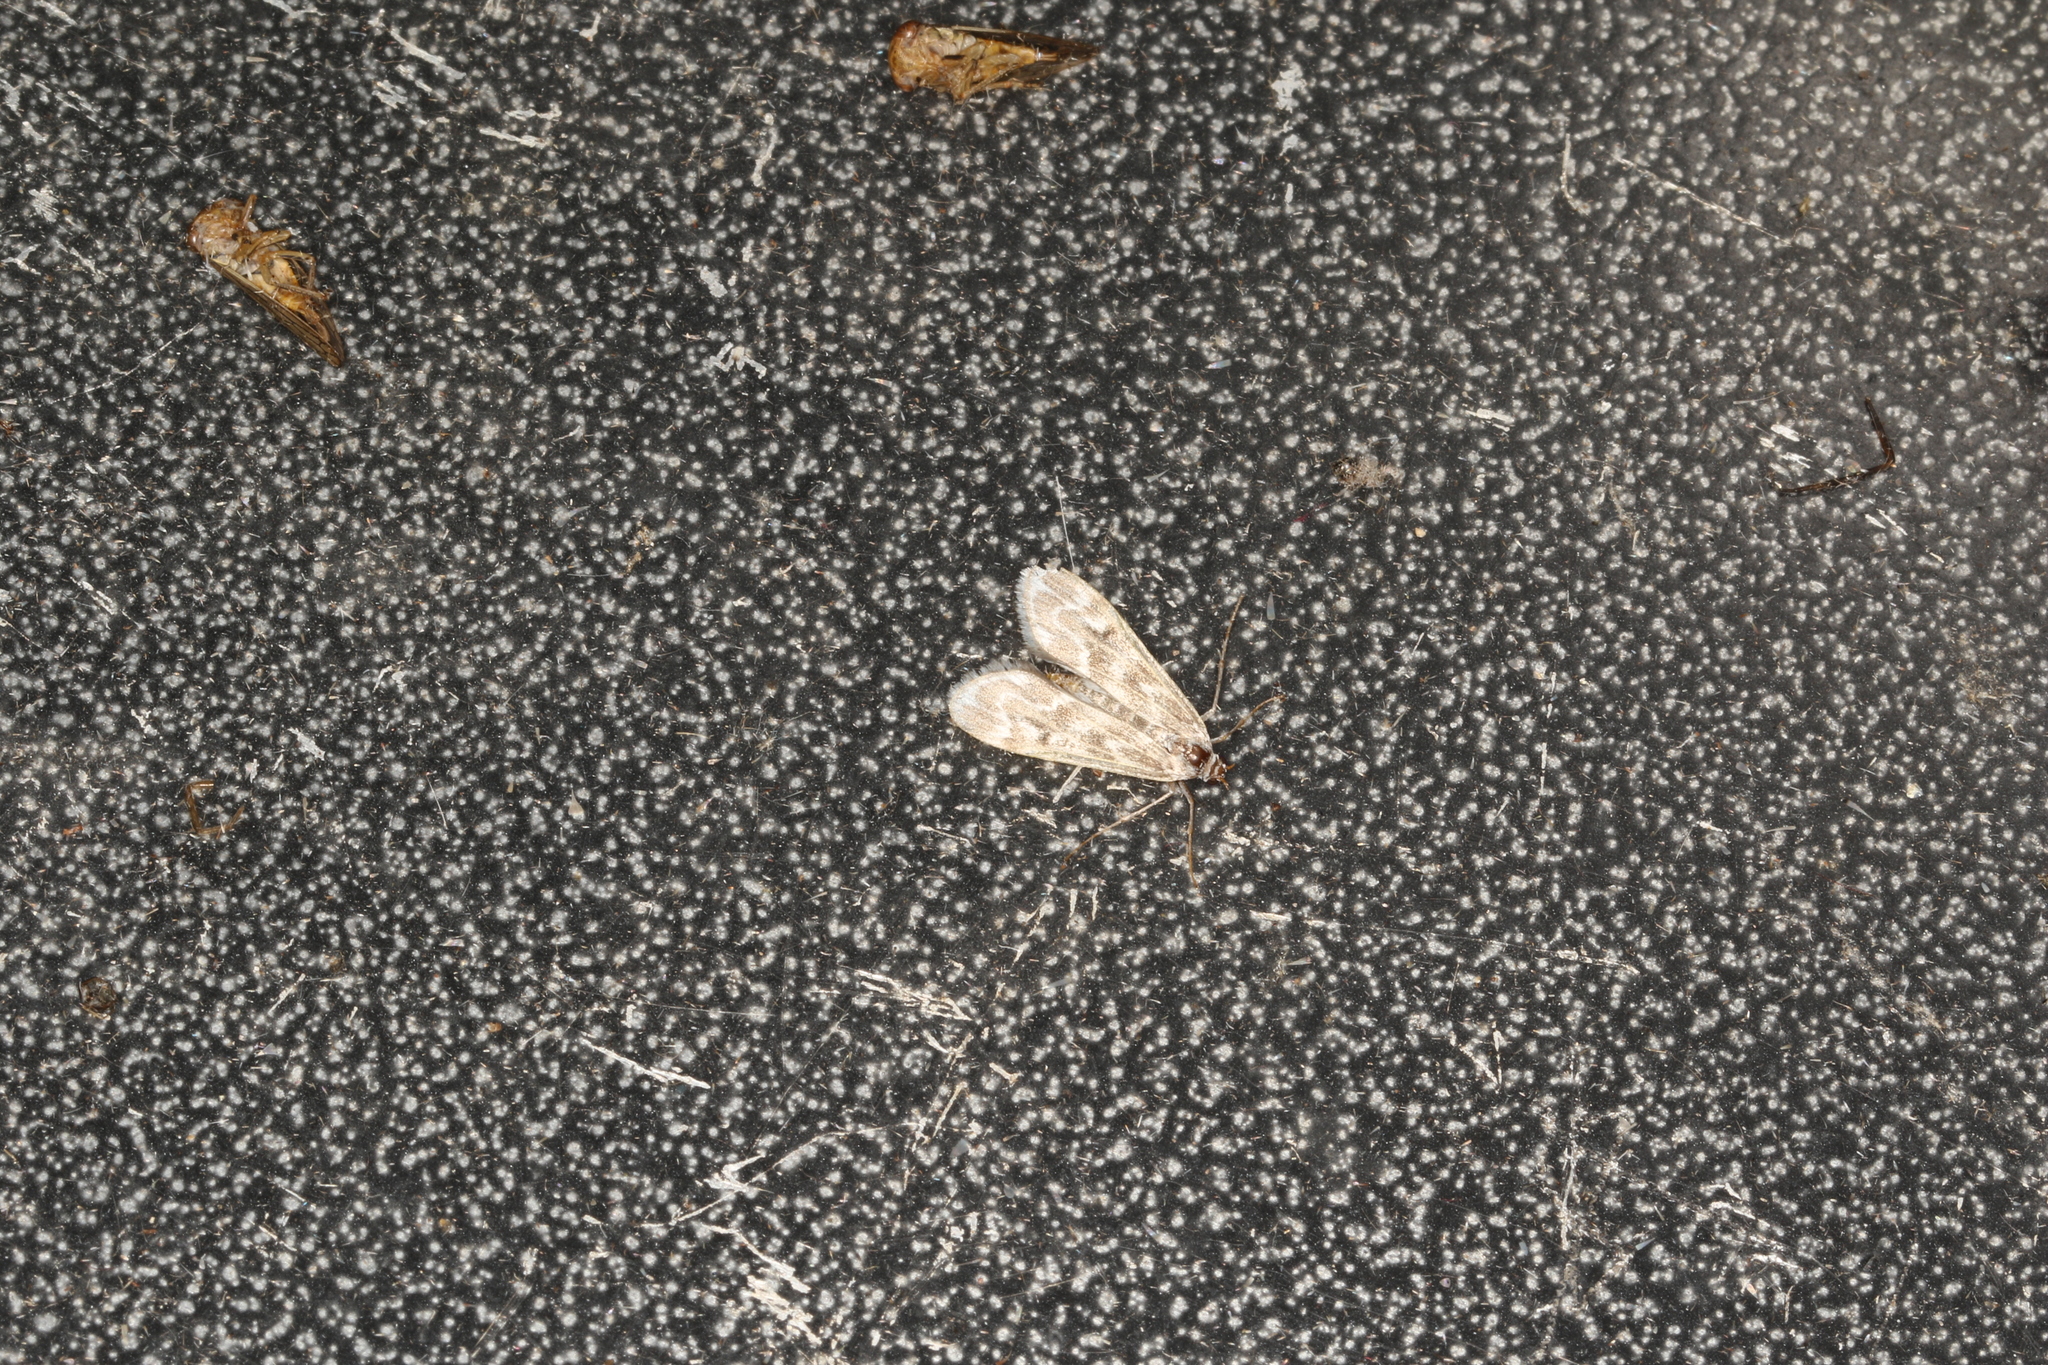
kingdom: Animalia
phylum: Arthropoda
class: Insecta
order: Lepidoptera
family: Crambidae
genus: Hygraula
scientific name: Hygraula nitens
